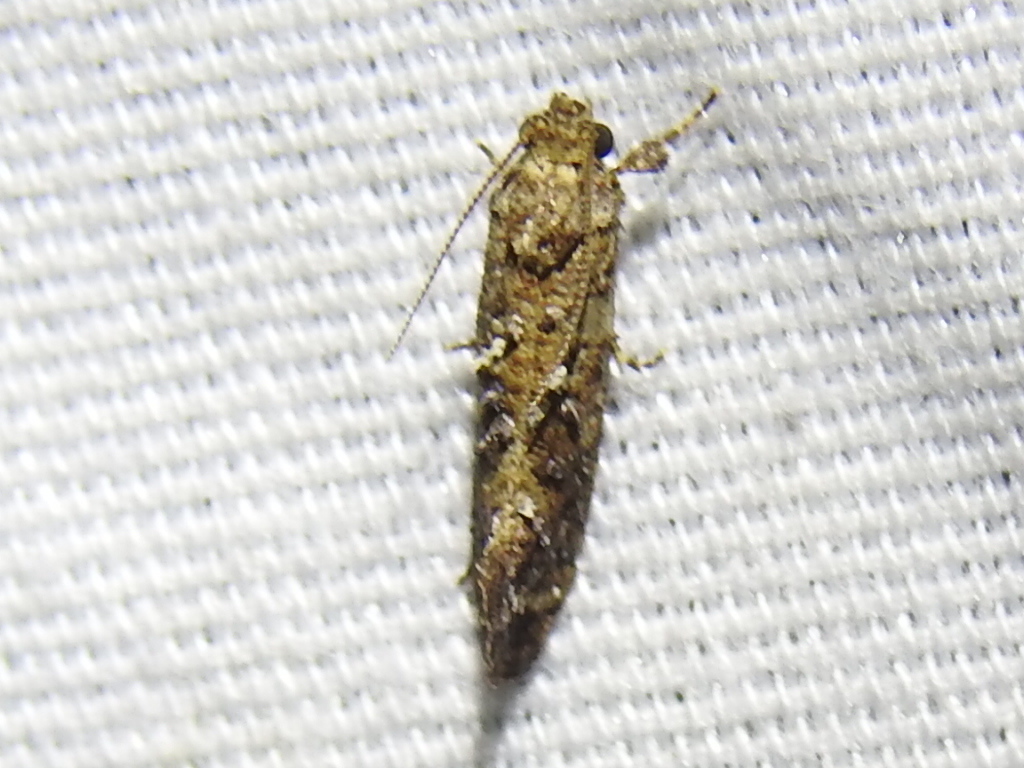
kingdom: Animalia
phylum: Arthropoda
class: Insecta
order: Lepidoptera
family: Tineidae
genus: Acrolophus
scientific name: Acrolophus cressoni
